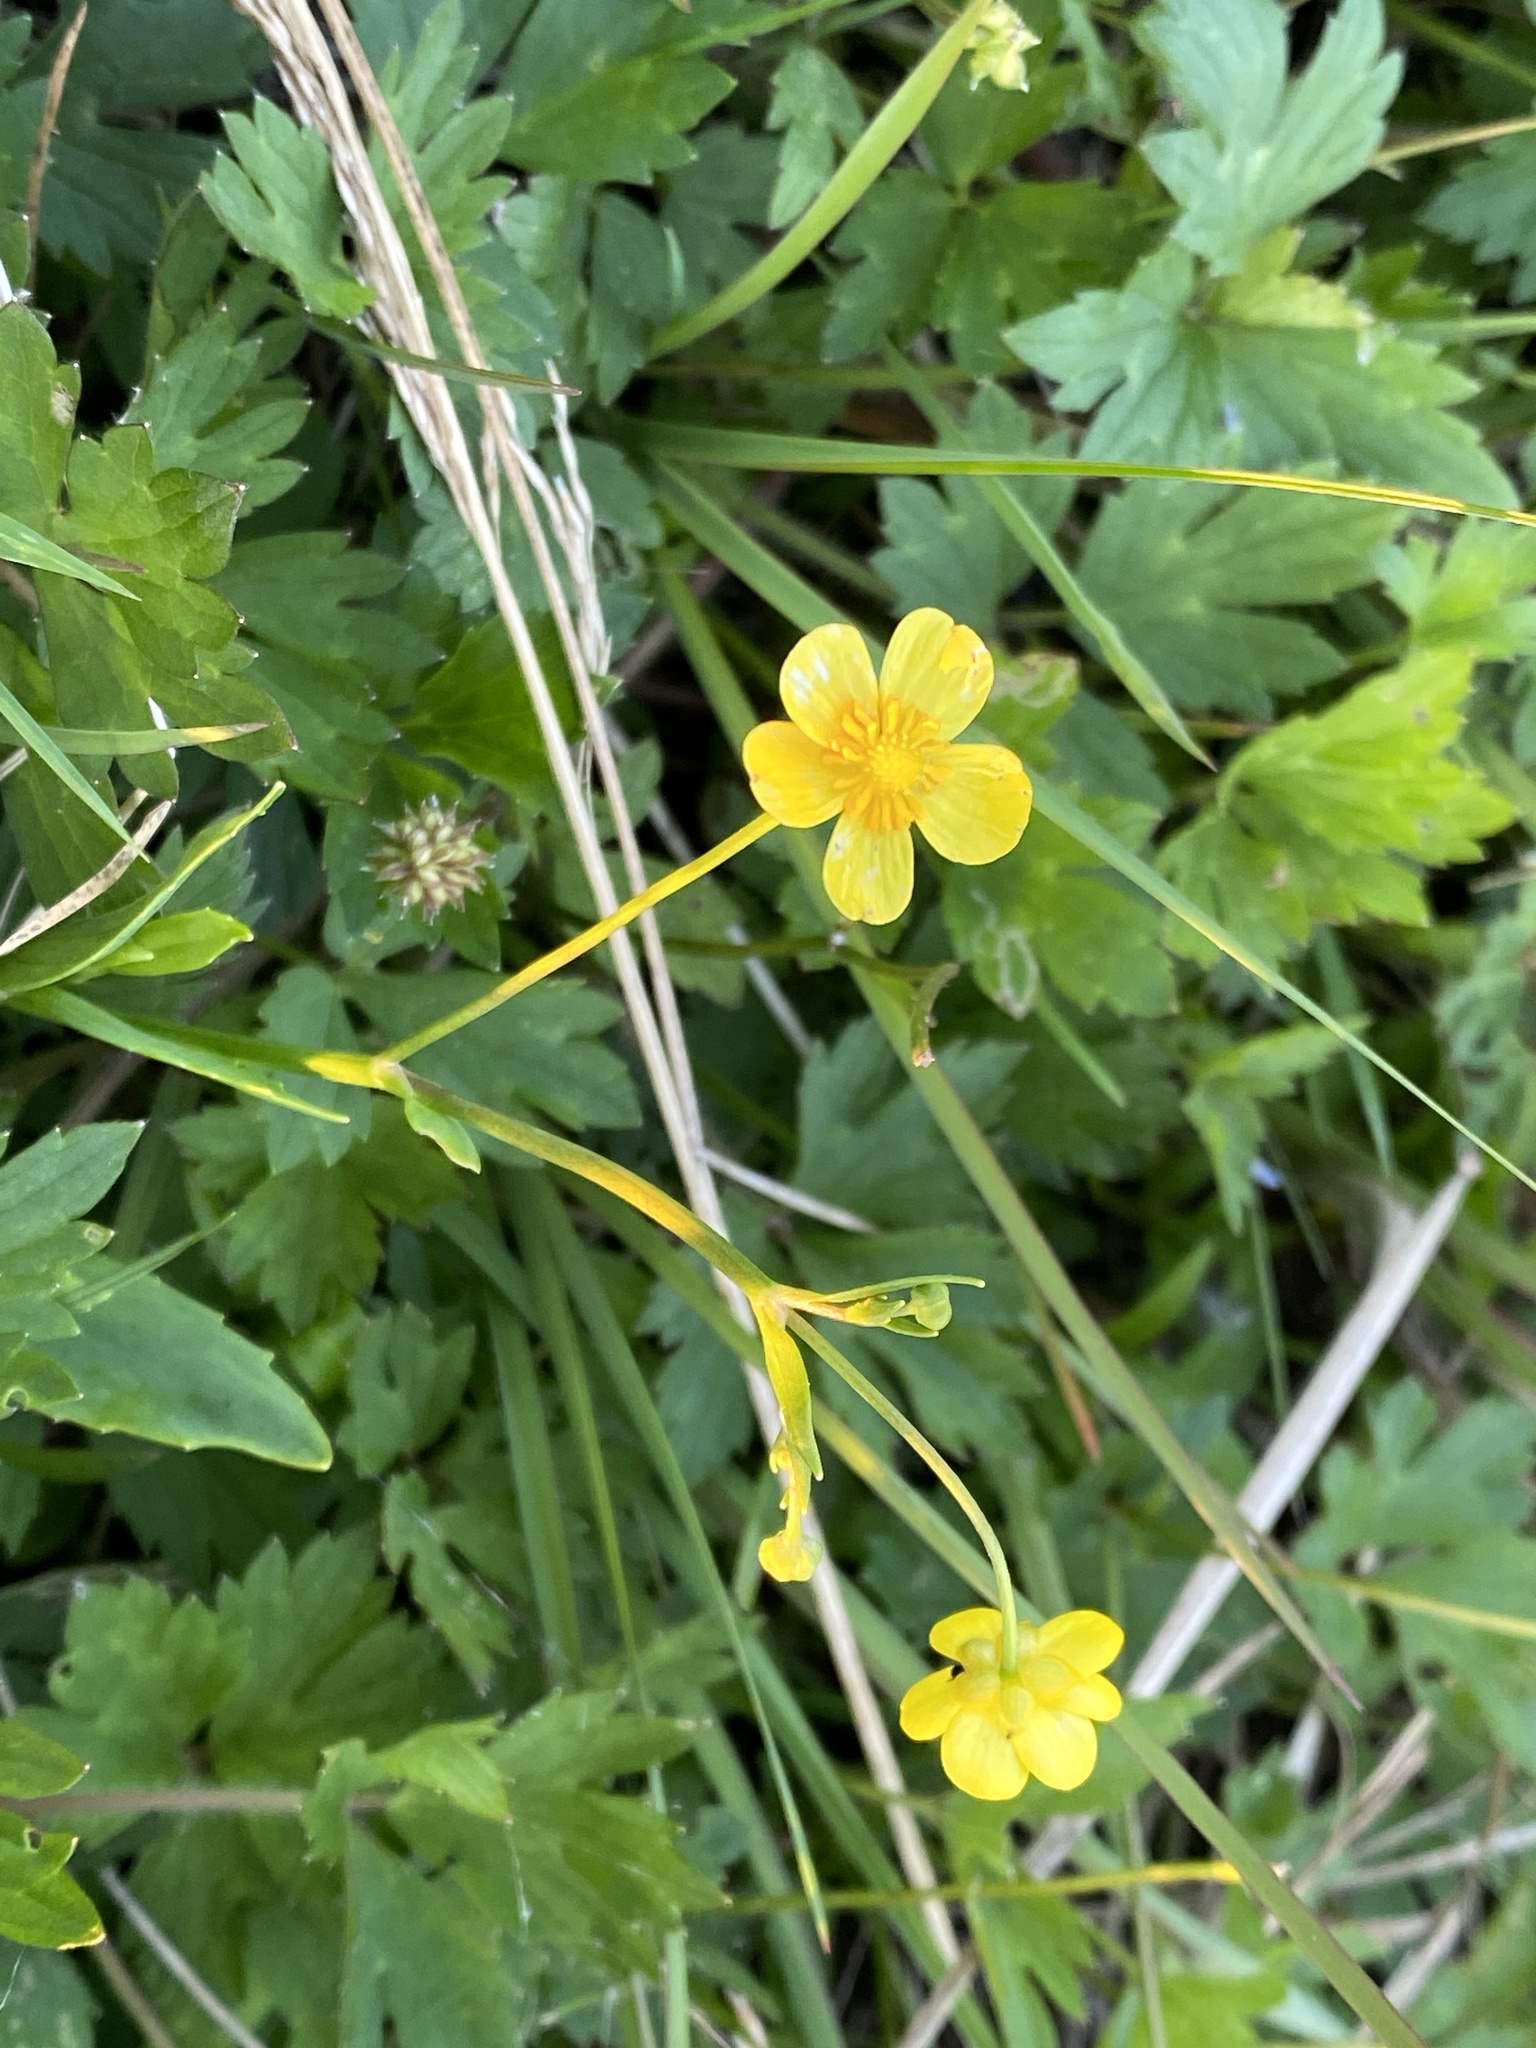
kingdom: Plantae
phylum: Tracheophyta
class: Magnoliopsida
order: Ranunculales
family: Ranunculaceae
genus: Ranunculus
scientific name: Ranunculus repens
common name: Creeping buttercup
